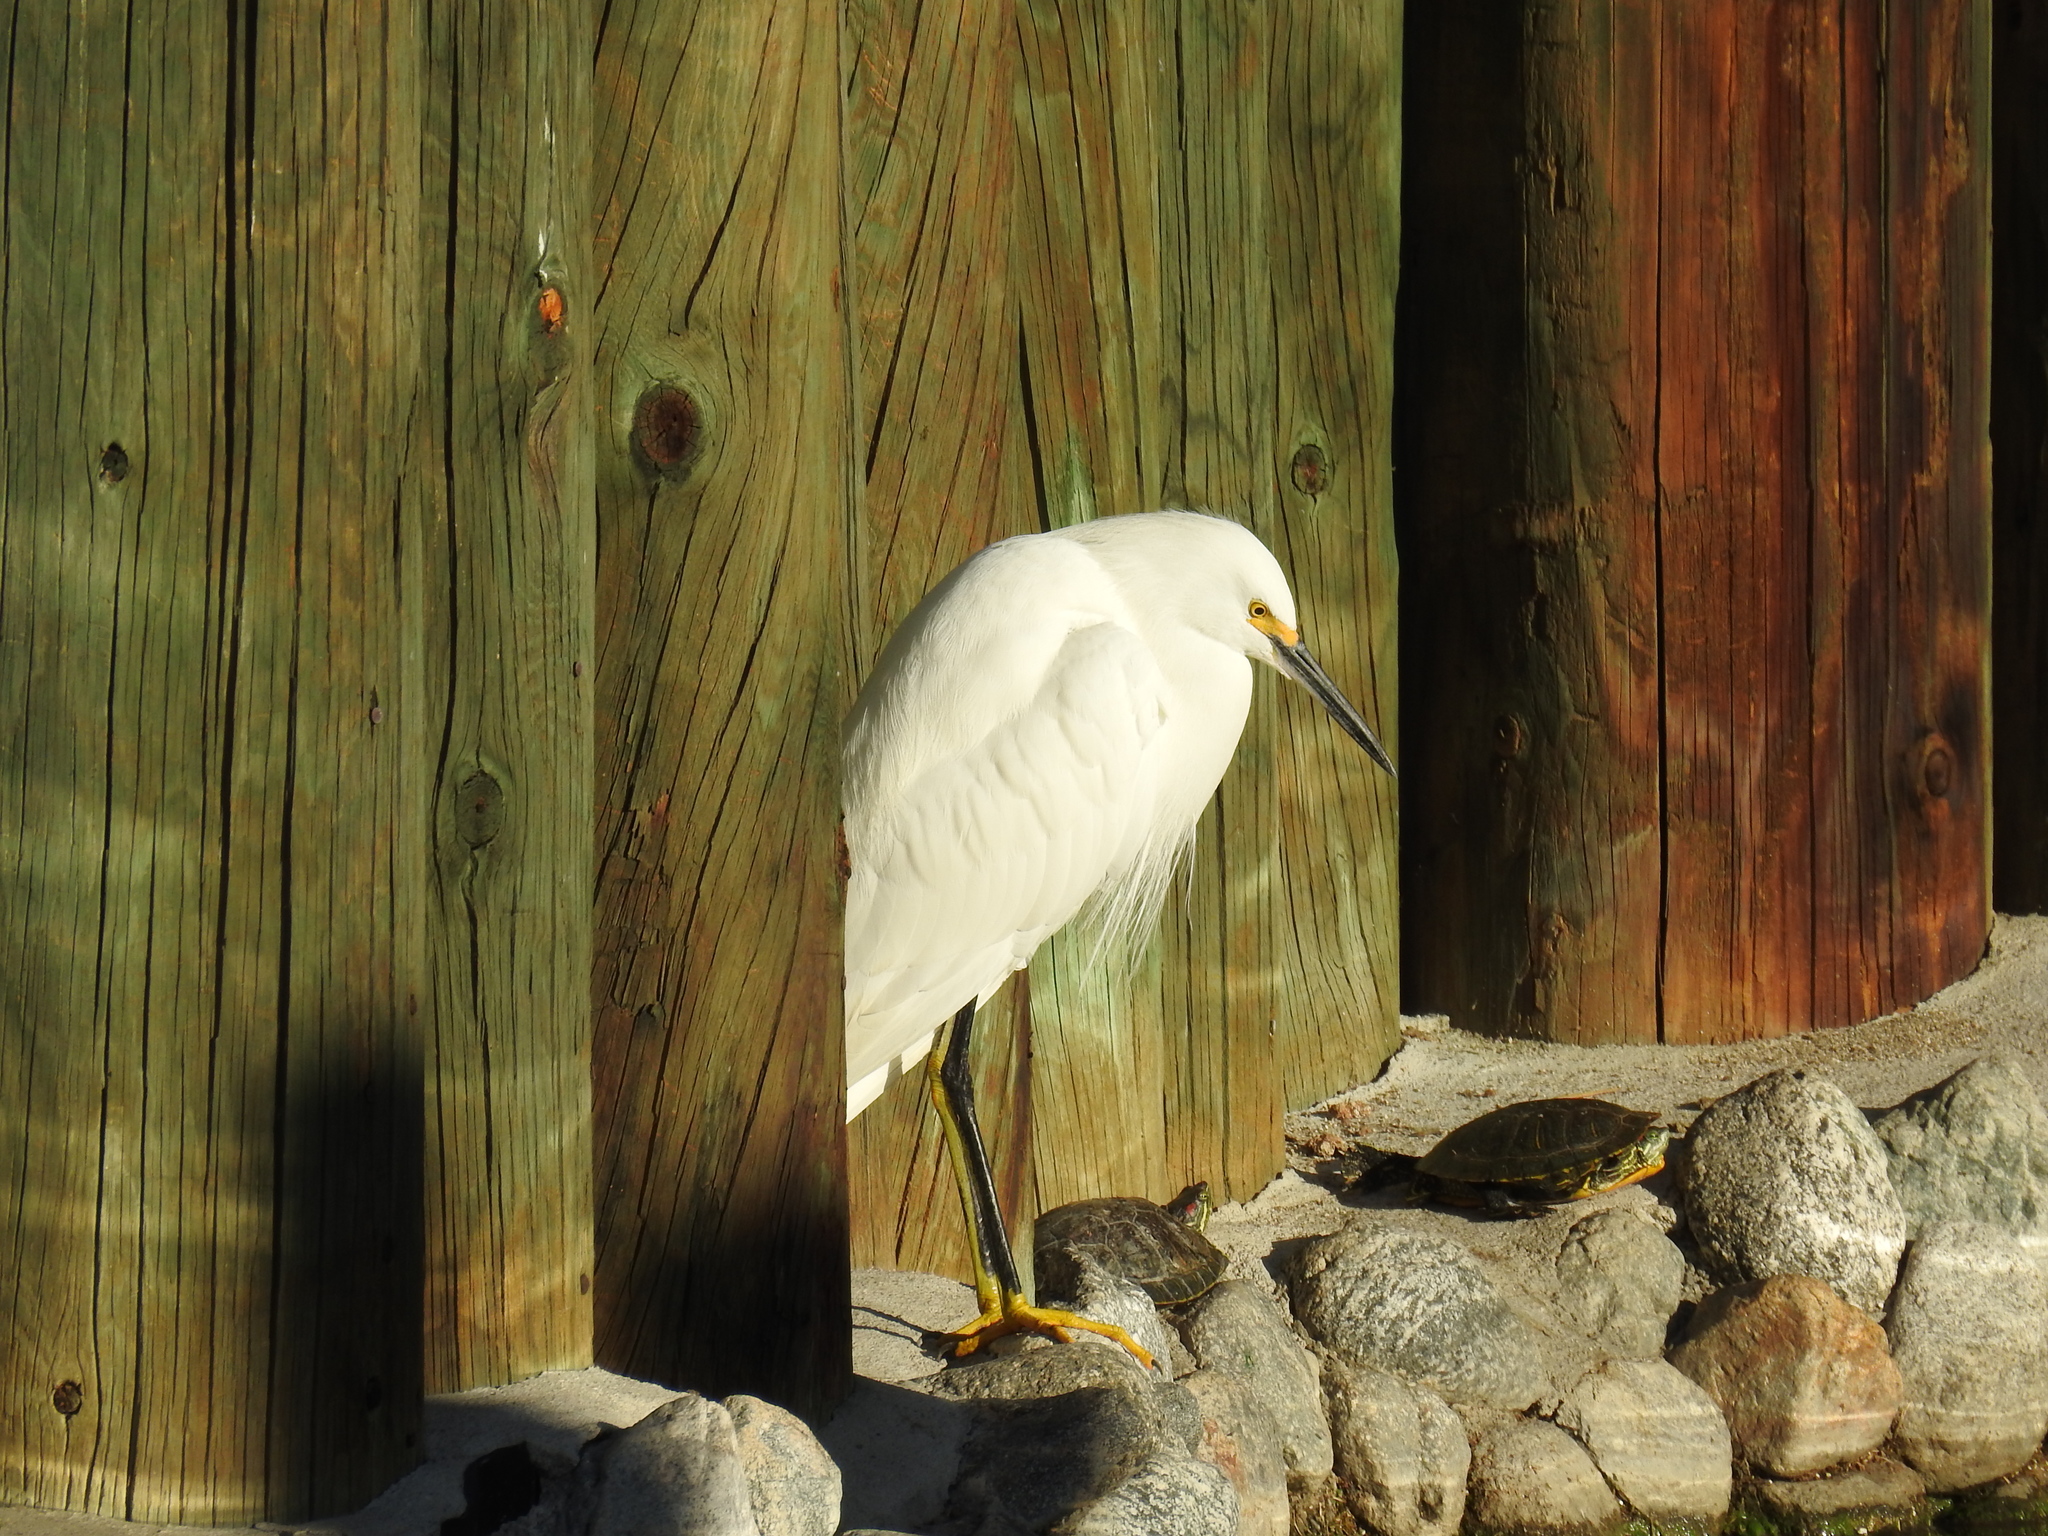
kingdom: Animalia
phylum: Chordata
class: Aves
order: Pelecaniformes
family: Ardeidae
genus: Egretta
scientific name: Egretta thula
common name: Snowy egret
